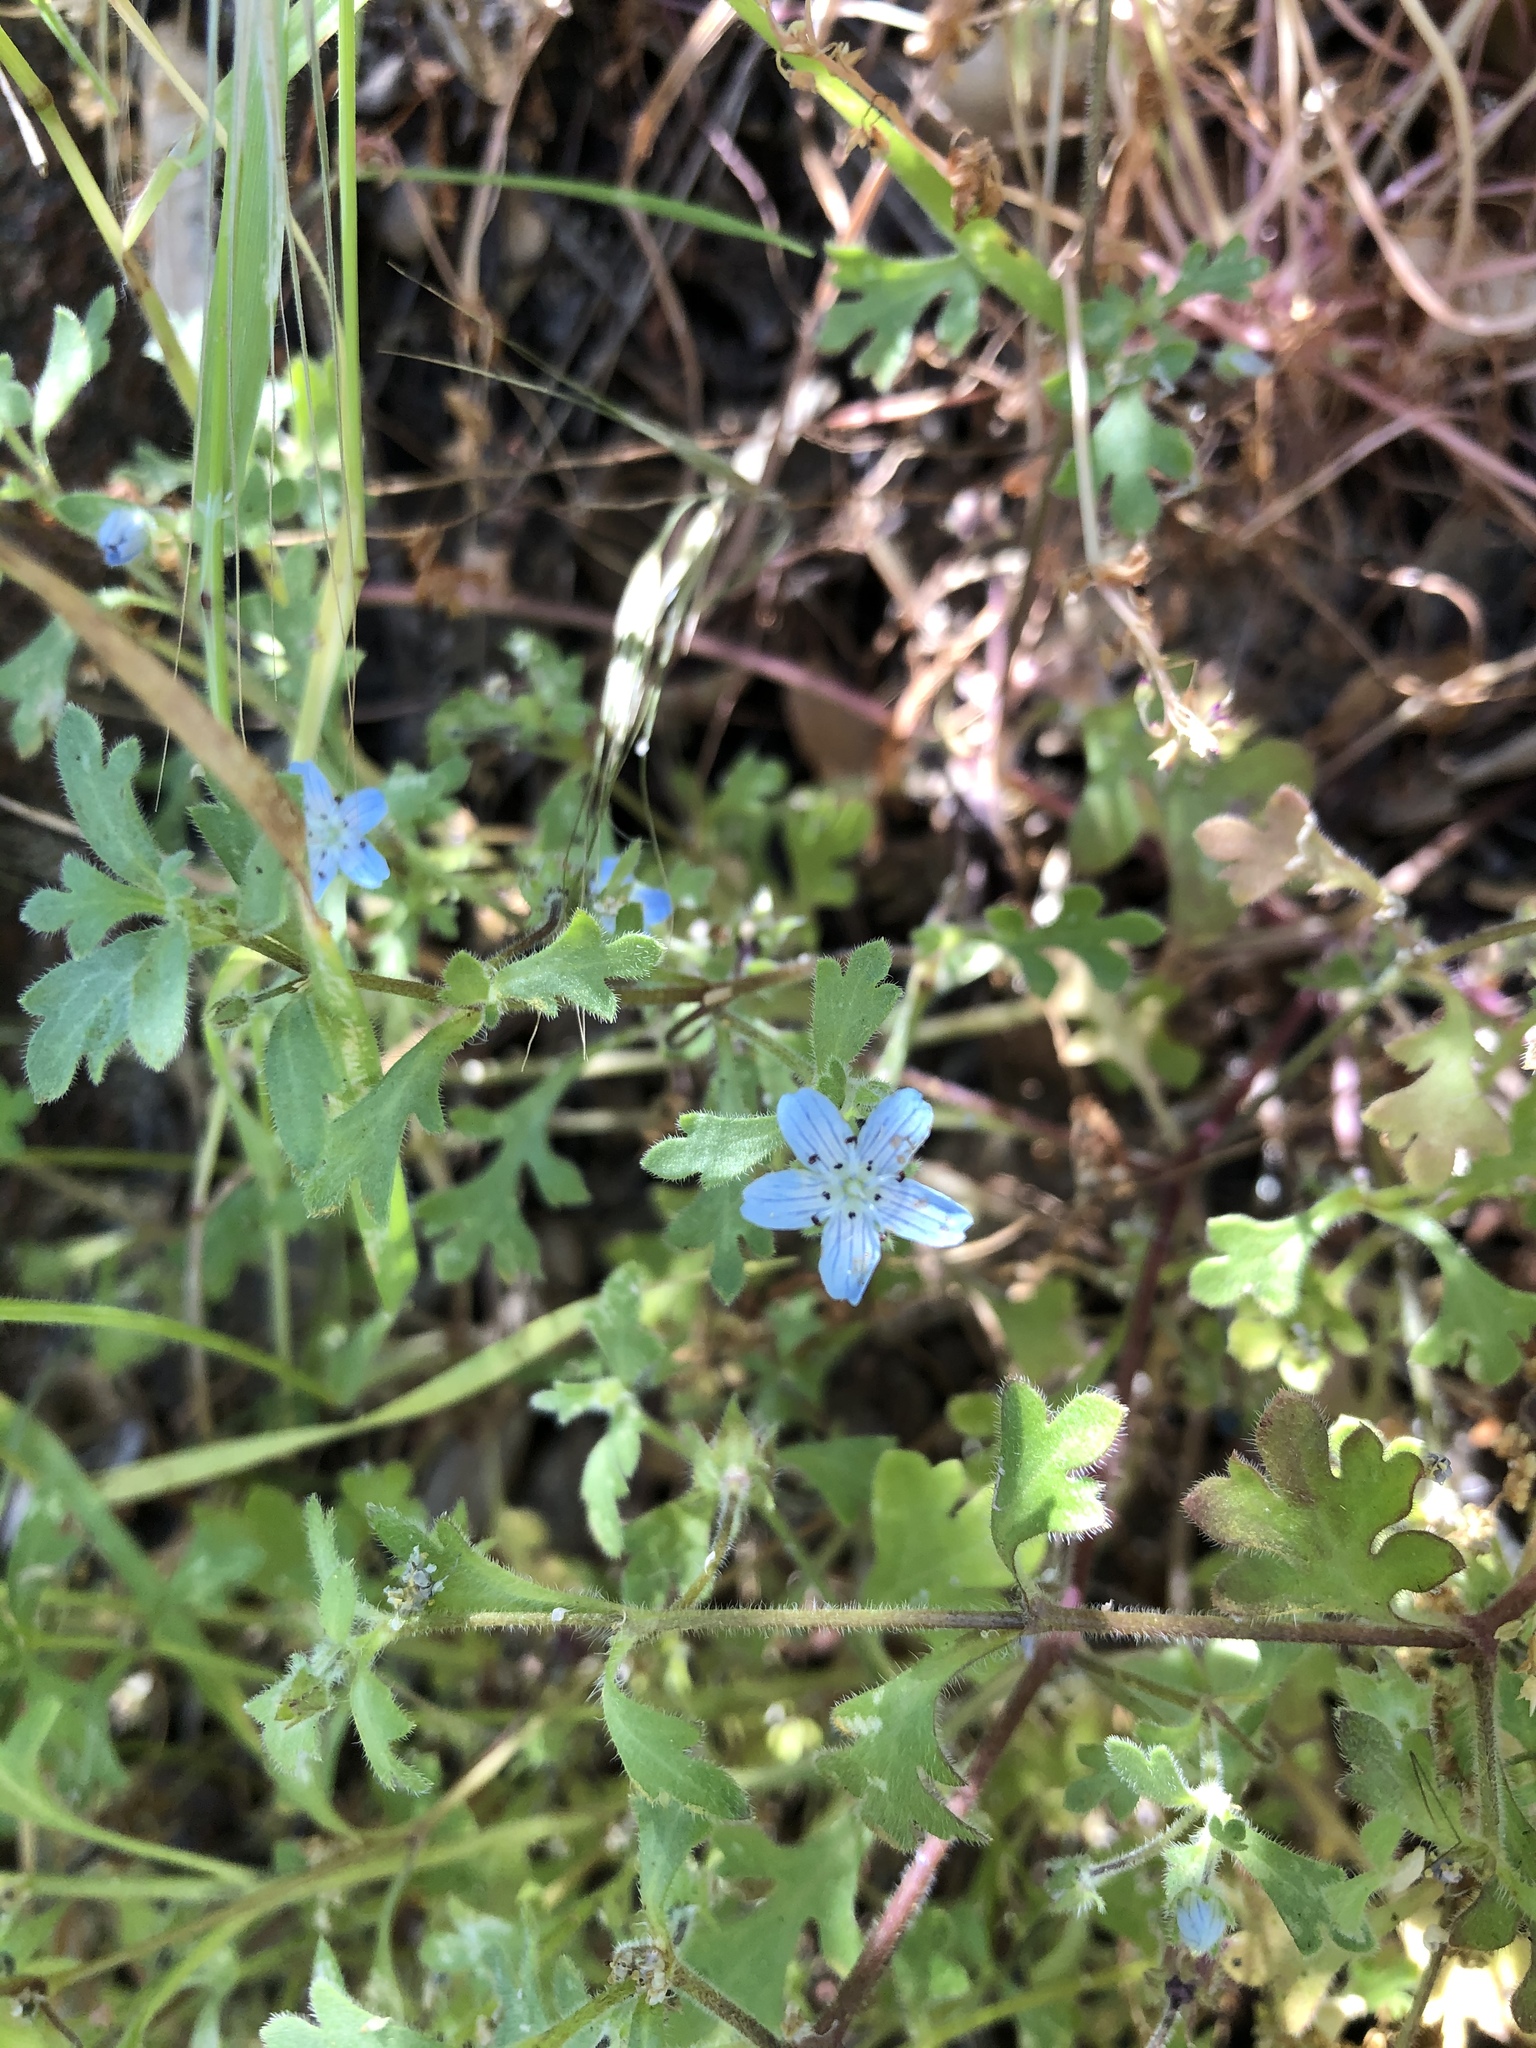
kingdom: Plantae
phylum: Tracheophyta
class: Magnoliopsida
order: Boraginales
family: Hydrophyllaceae
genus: Nemophila
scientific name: Nemophila menziesii
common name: Baby's-blue-eyes
